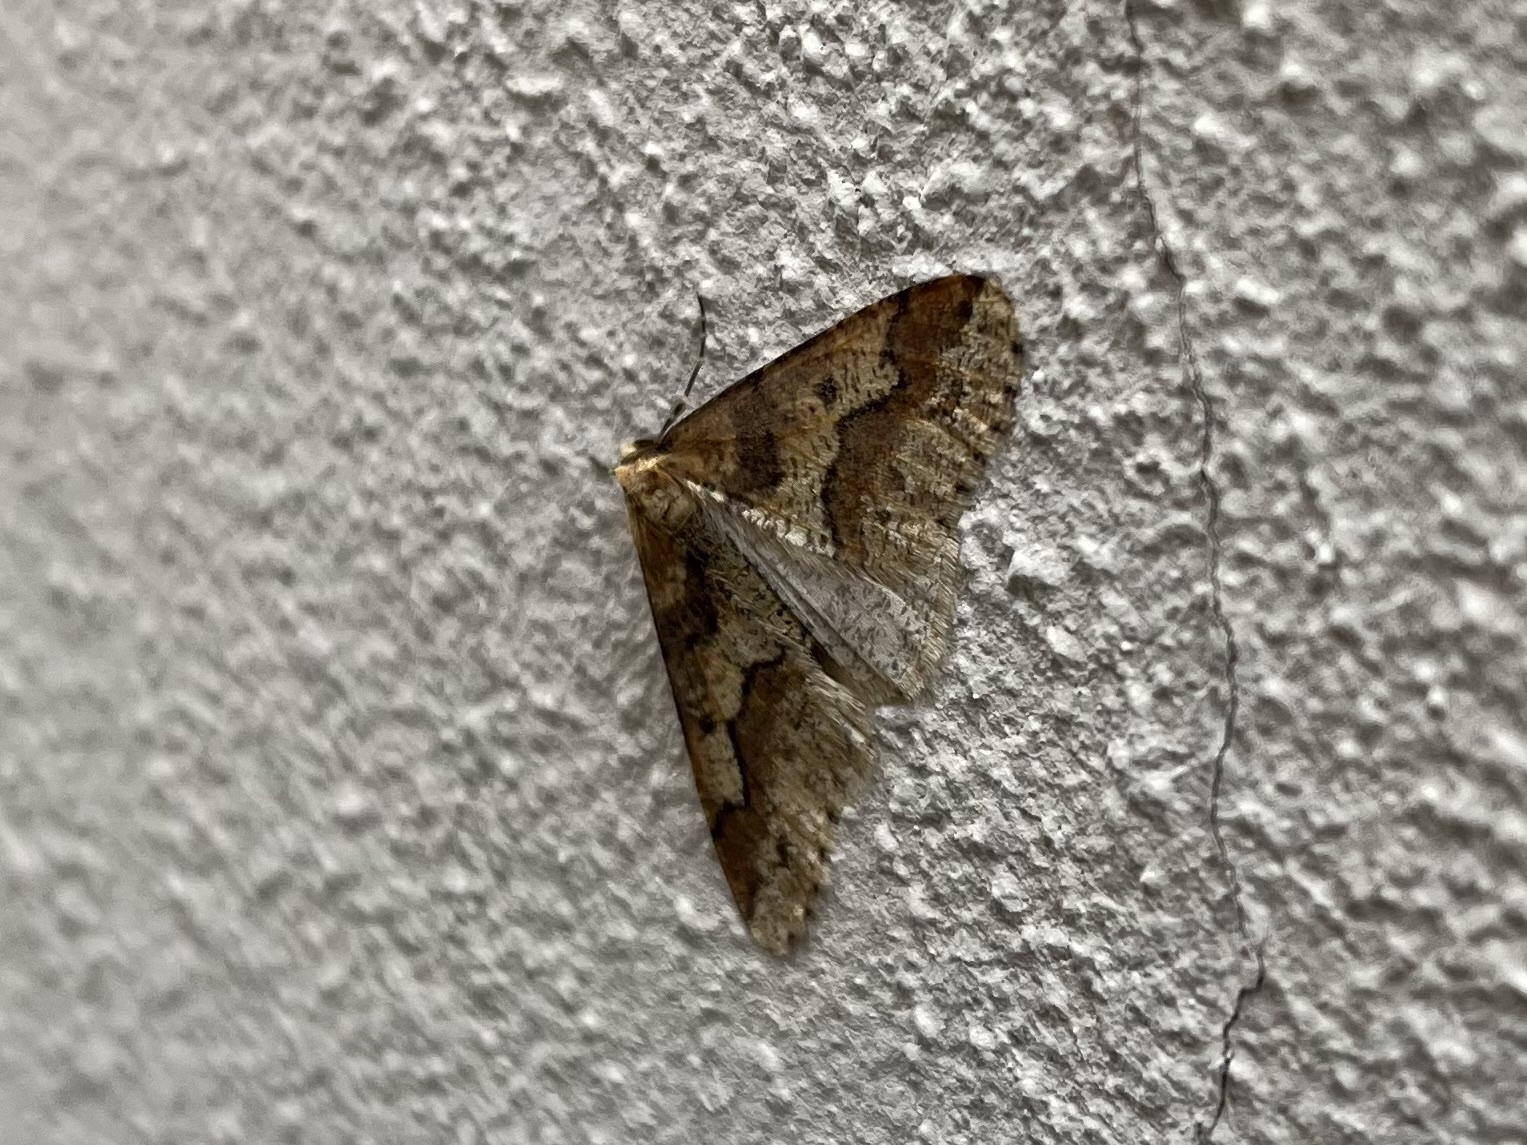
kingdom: Animalia
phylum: Arthropoda
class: Insecta
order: Lepidoptera
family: Geometridae
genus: Erannis
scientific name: Erannis defoliaria
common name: Mottled umber
